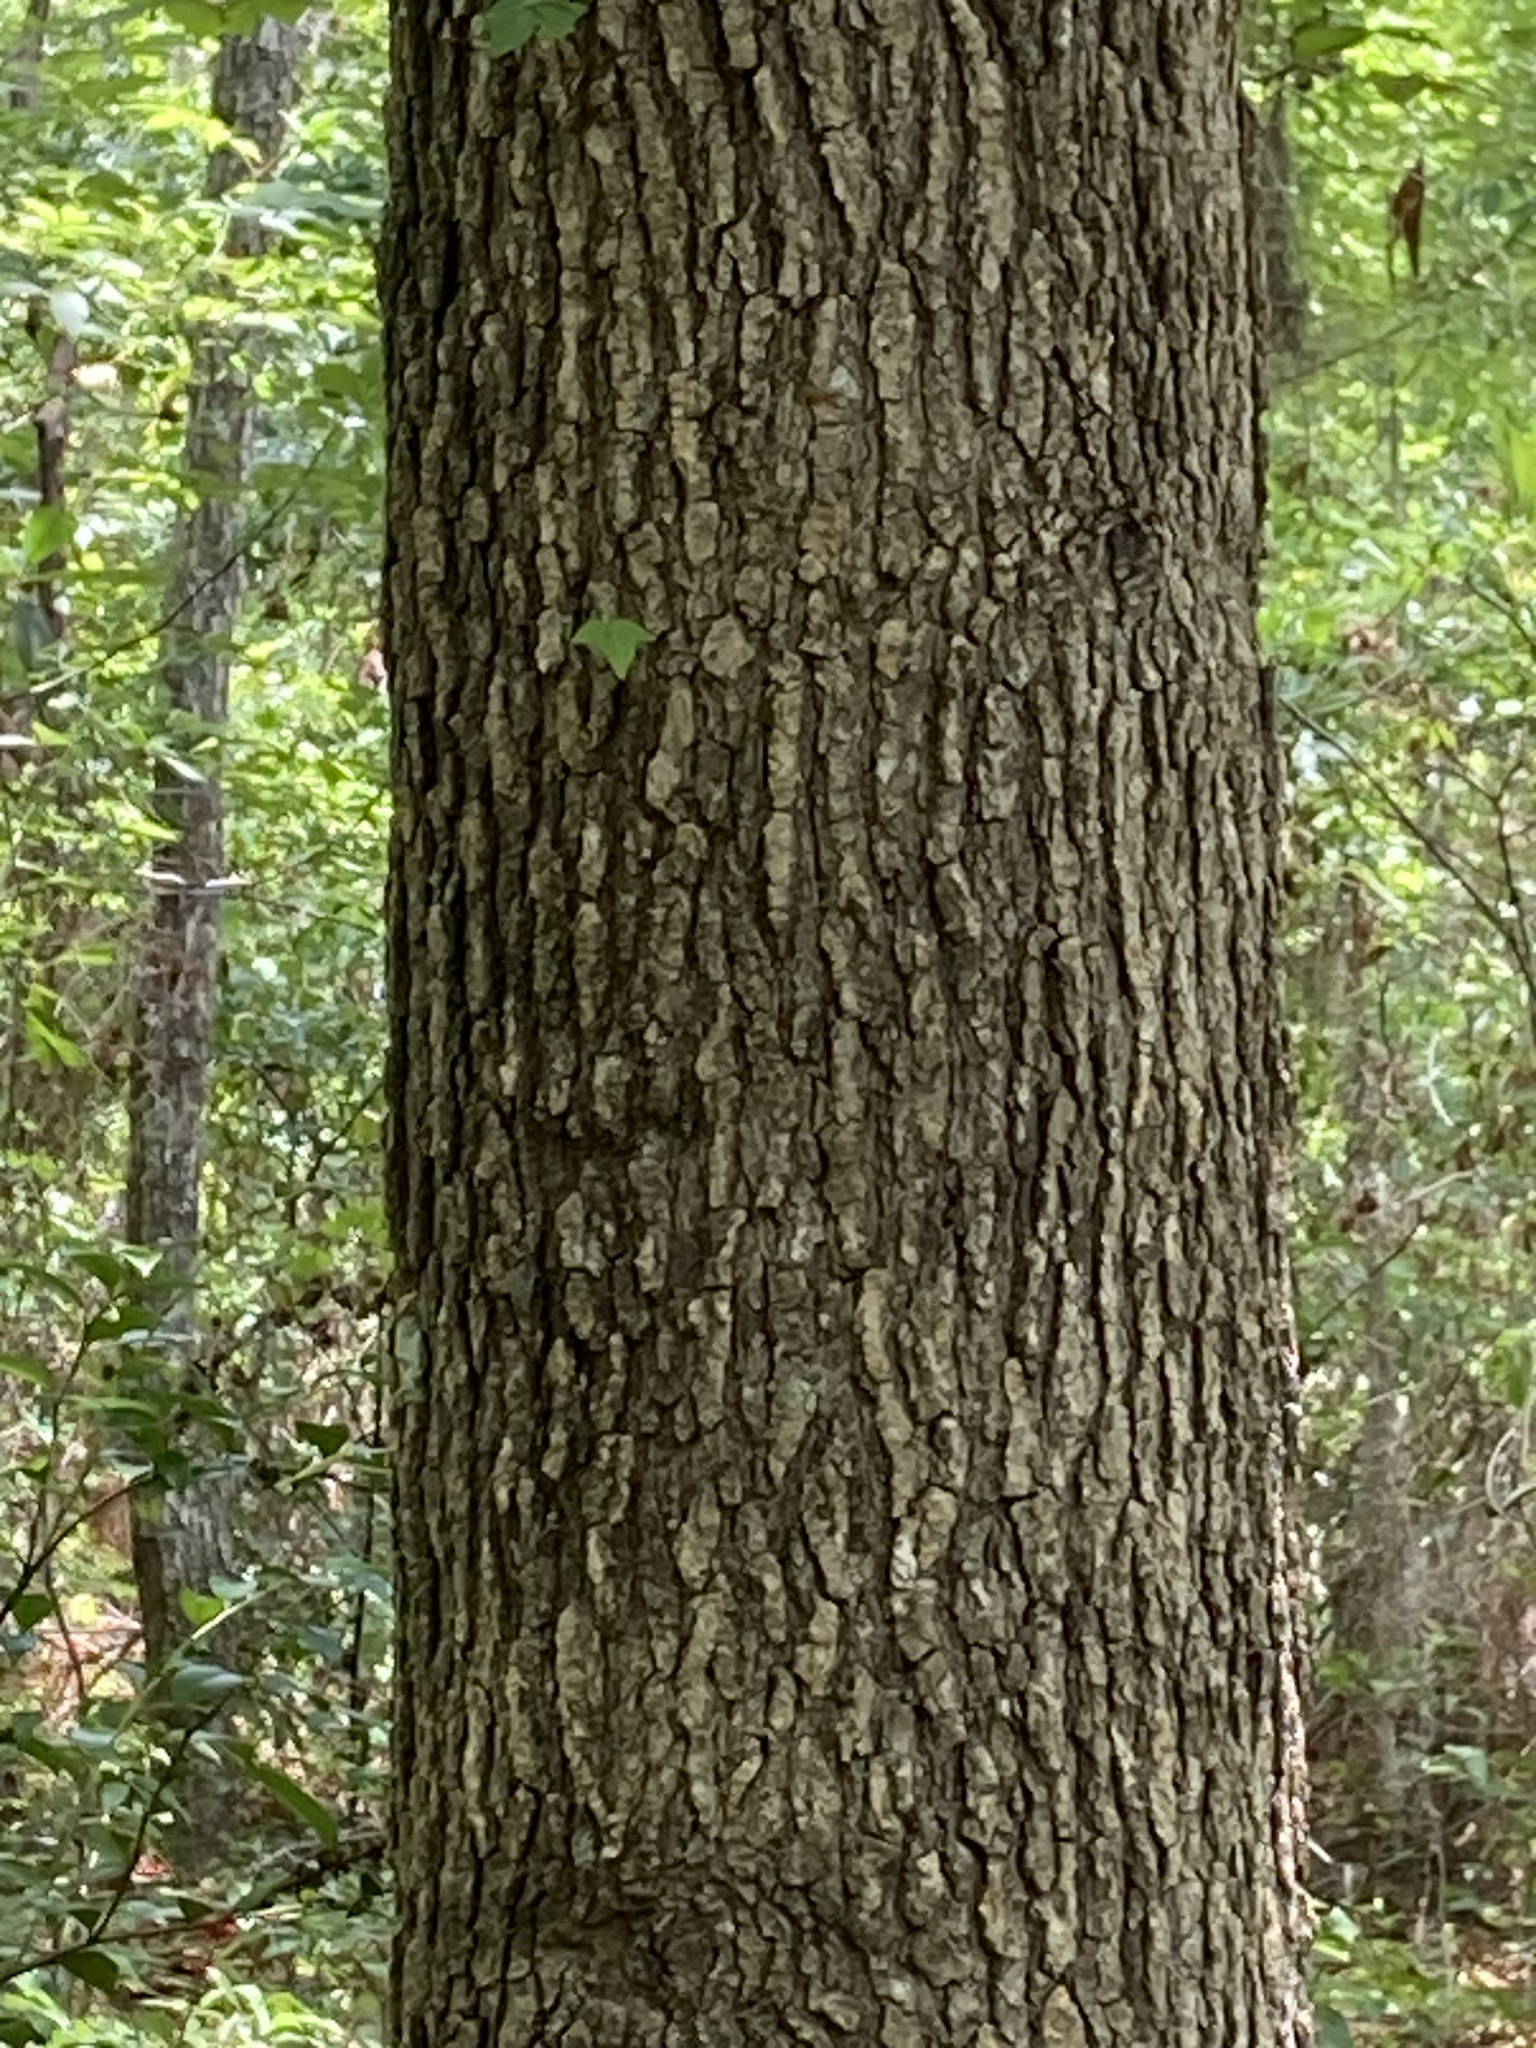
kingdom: Plantae
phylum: Tracheophyta
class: Magnoliopsida
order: Saxifragales
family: Altingiaceae
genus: Liquidambar
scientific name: Liquidambar styraciflua
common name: Sweet gum
